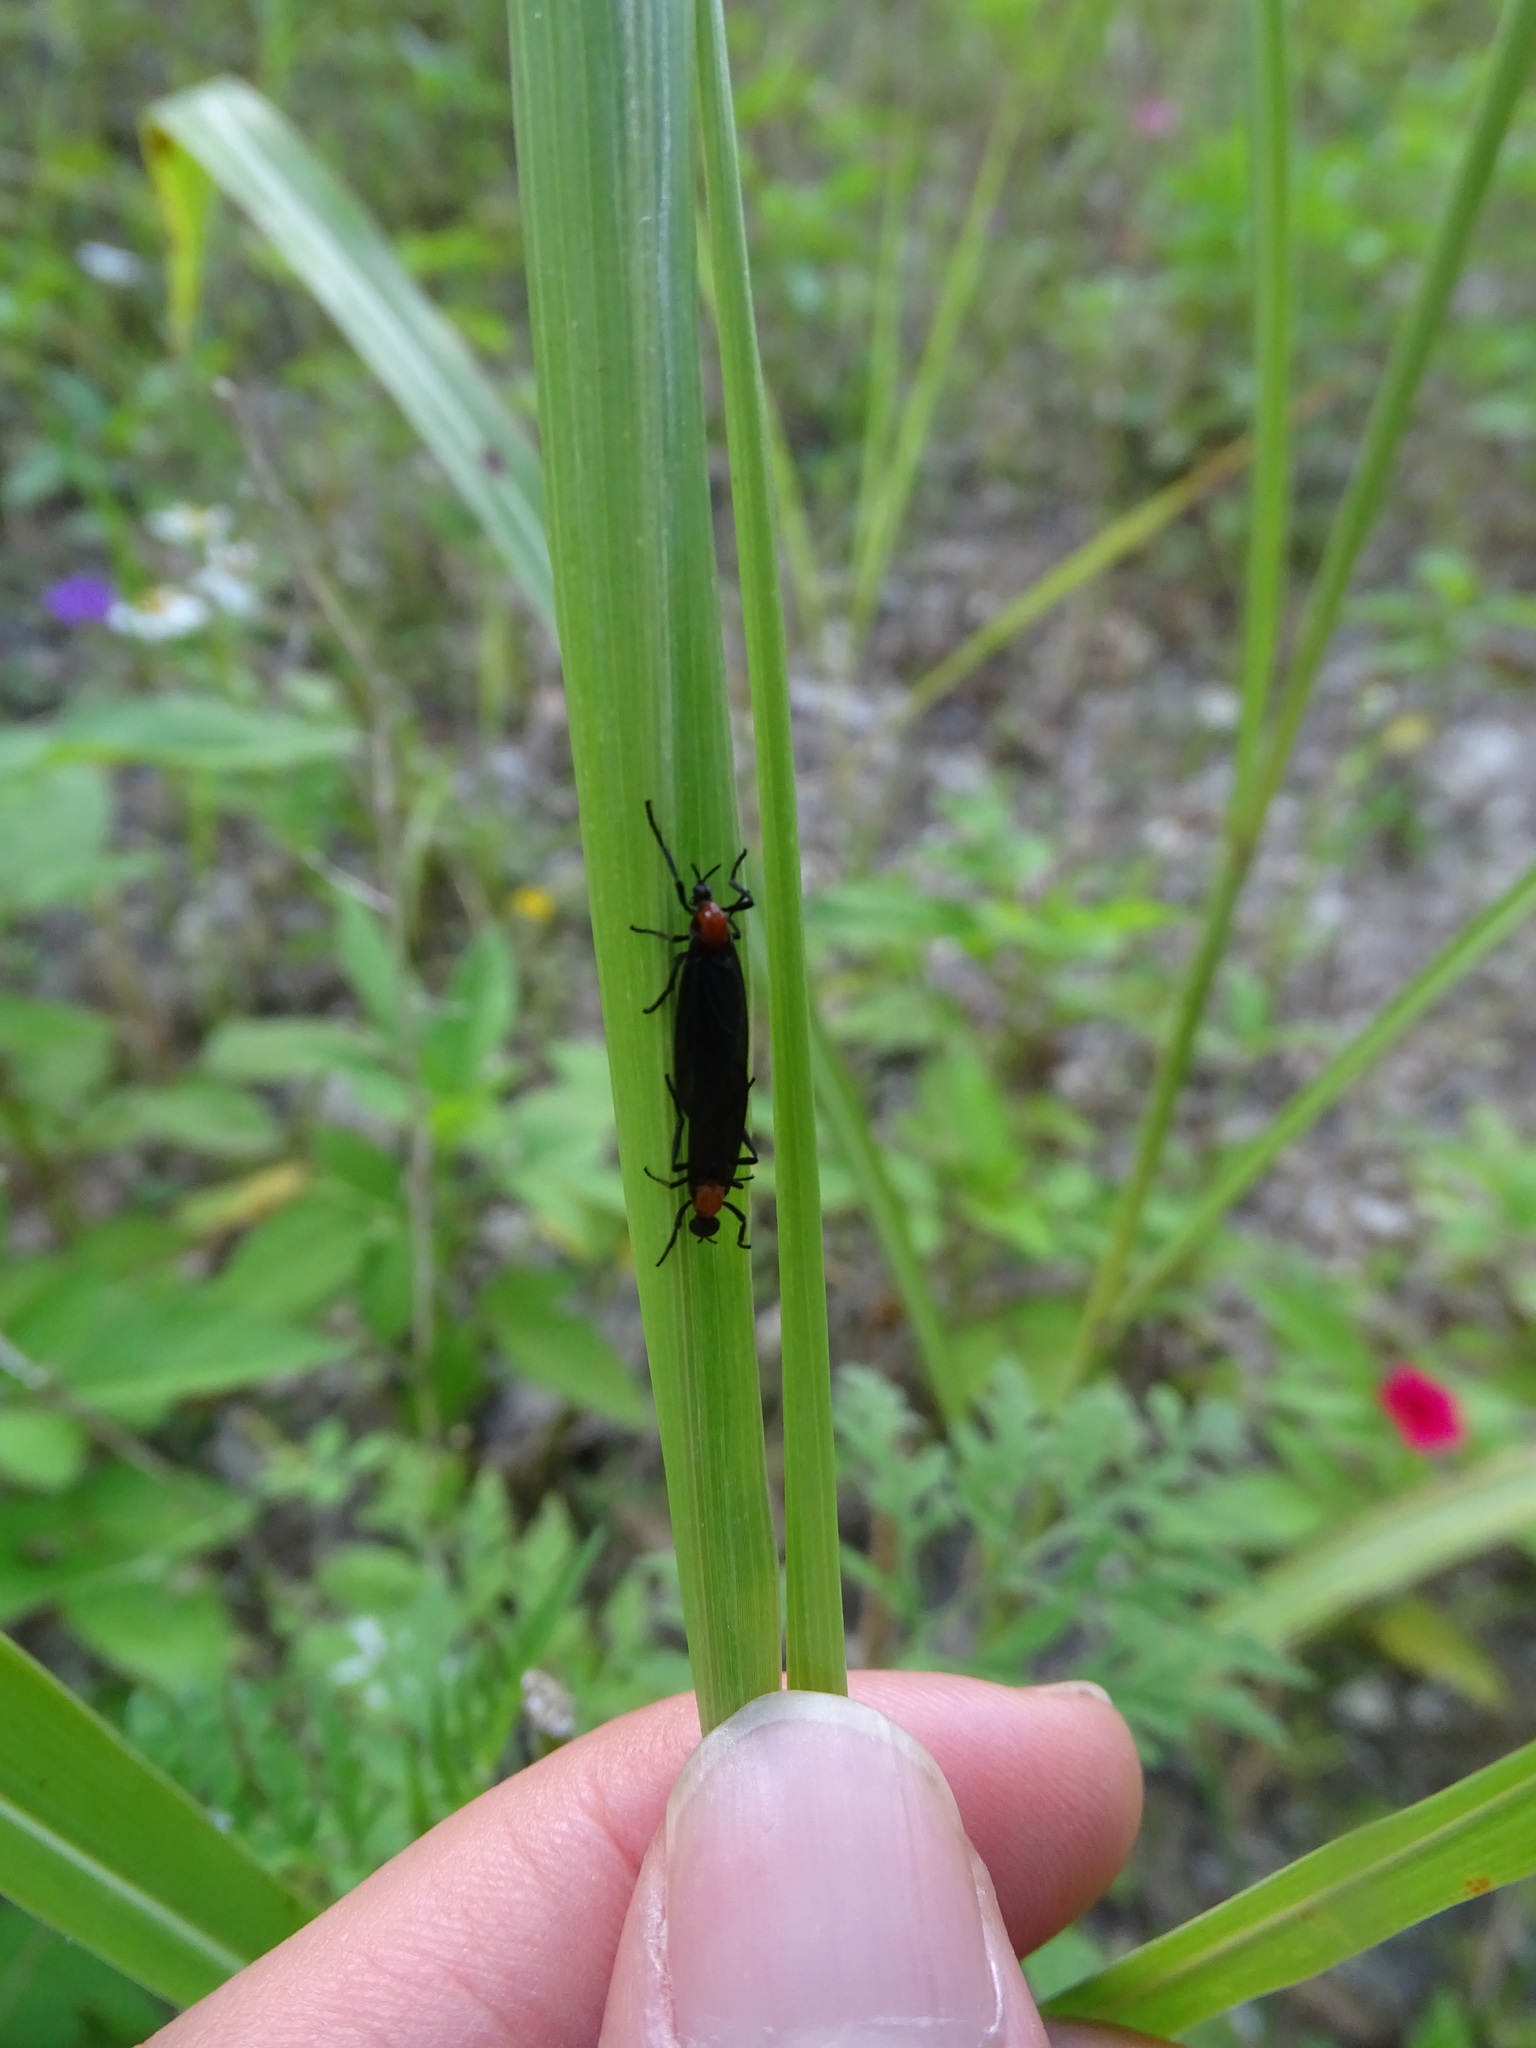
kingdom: Animalia
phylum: Arthropoda
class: Insecta
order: Diptera
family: Bibionidae
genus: Plecia
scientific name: Plecia nearctica
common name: March fly
